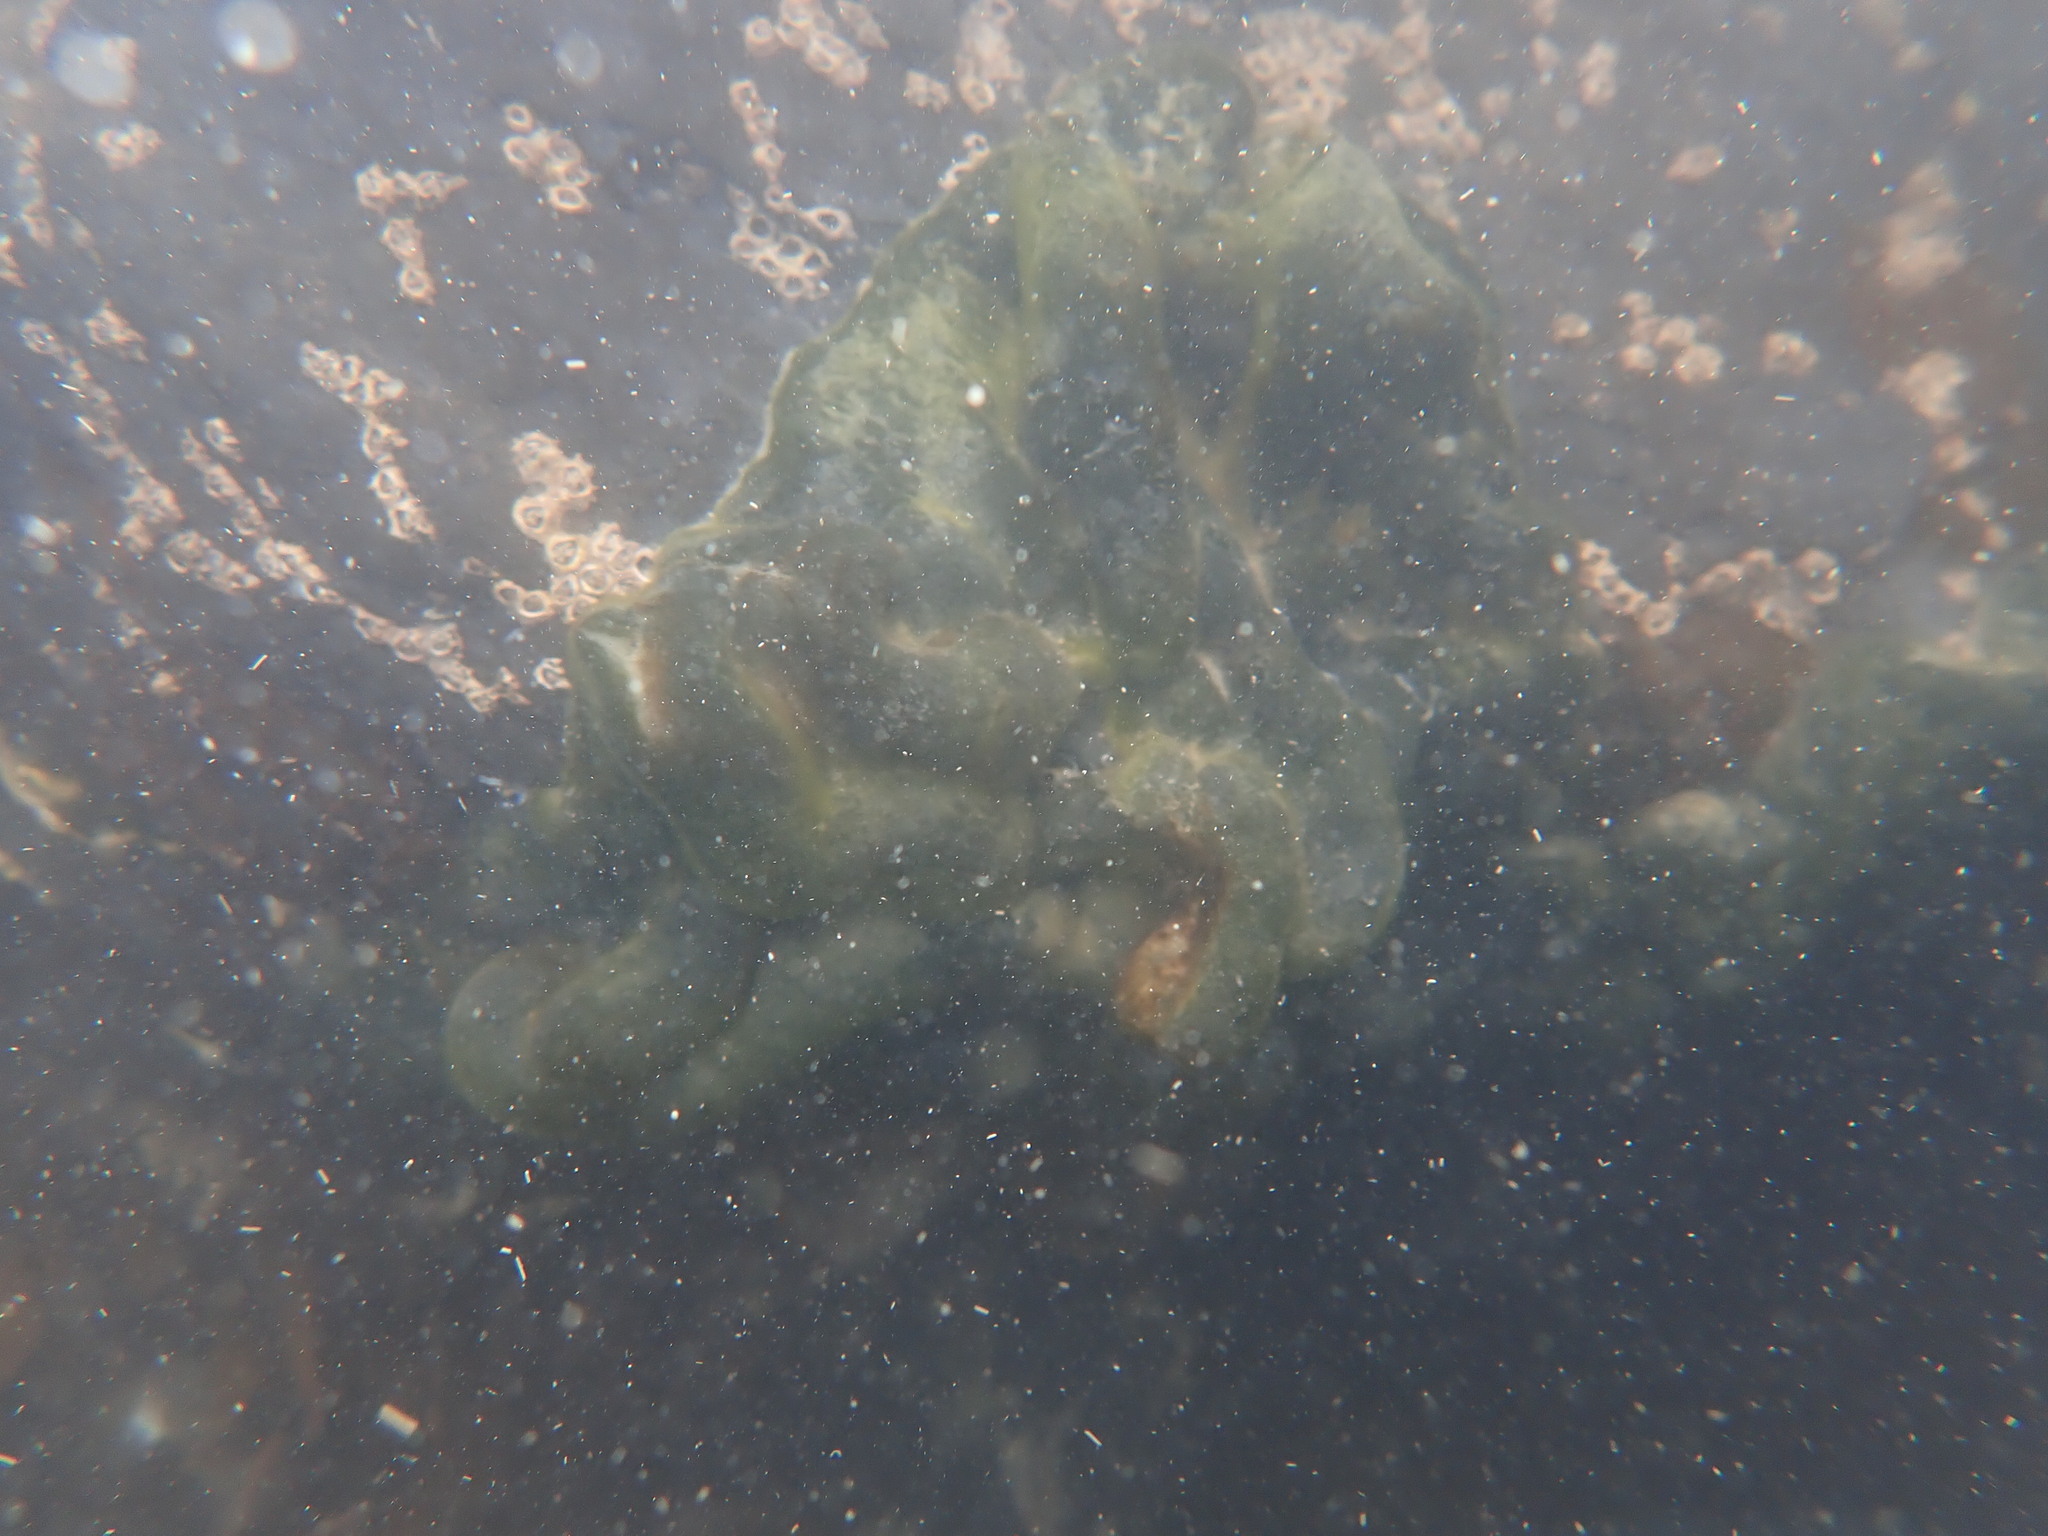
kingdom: Plantae
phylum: Chlorophyta
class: Ulvophyceae
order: Bryopsidales
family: Codiaceae
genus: Codium
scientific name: Codium convolutum
